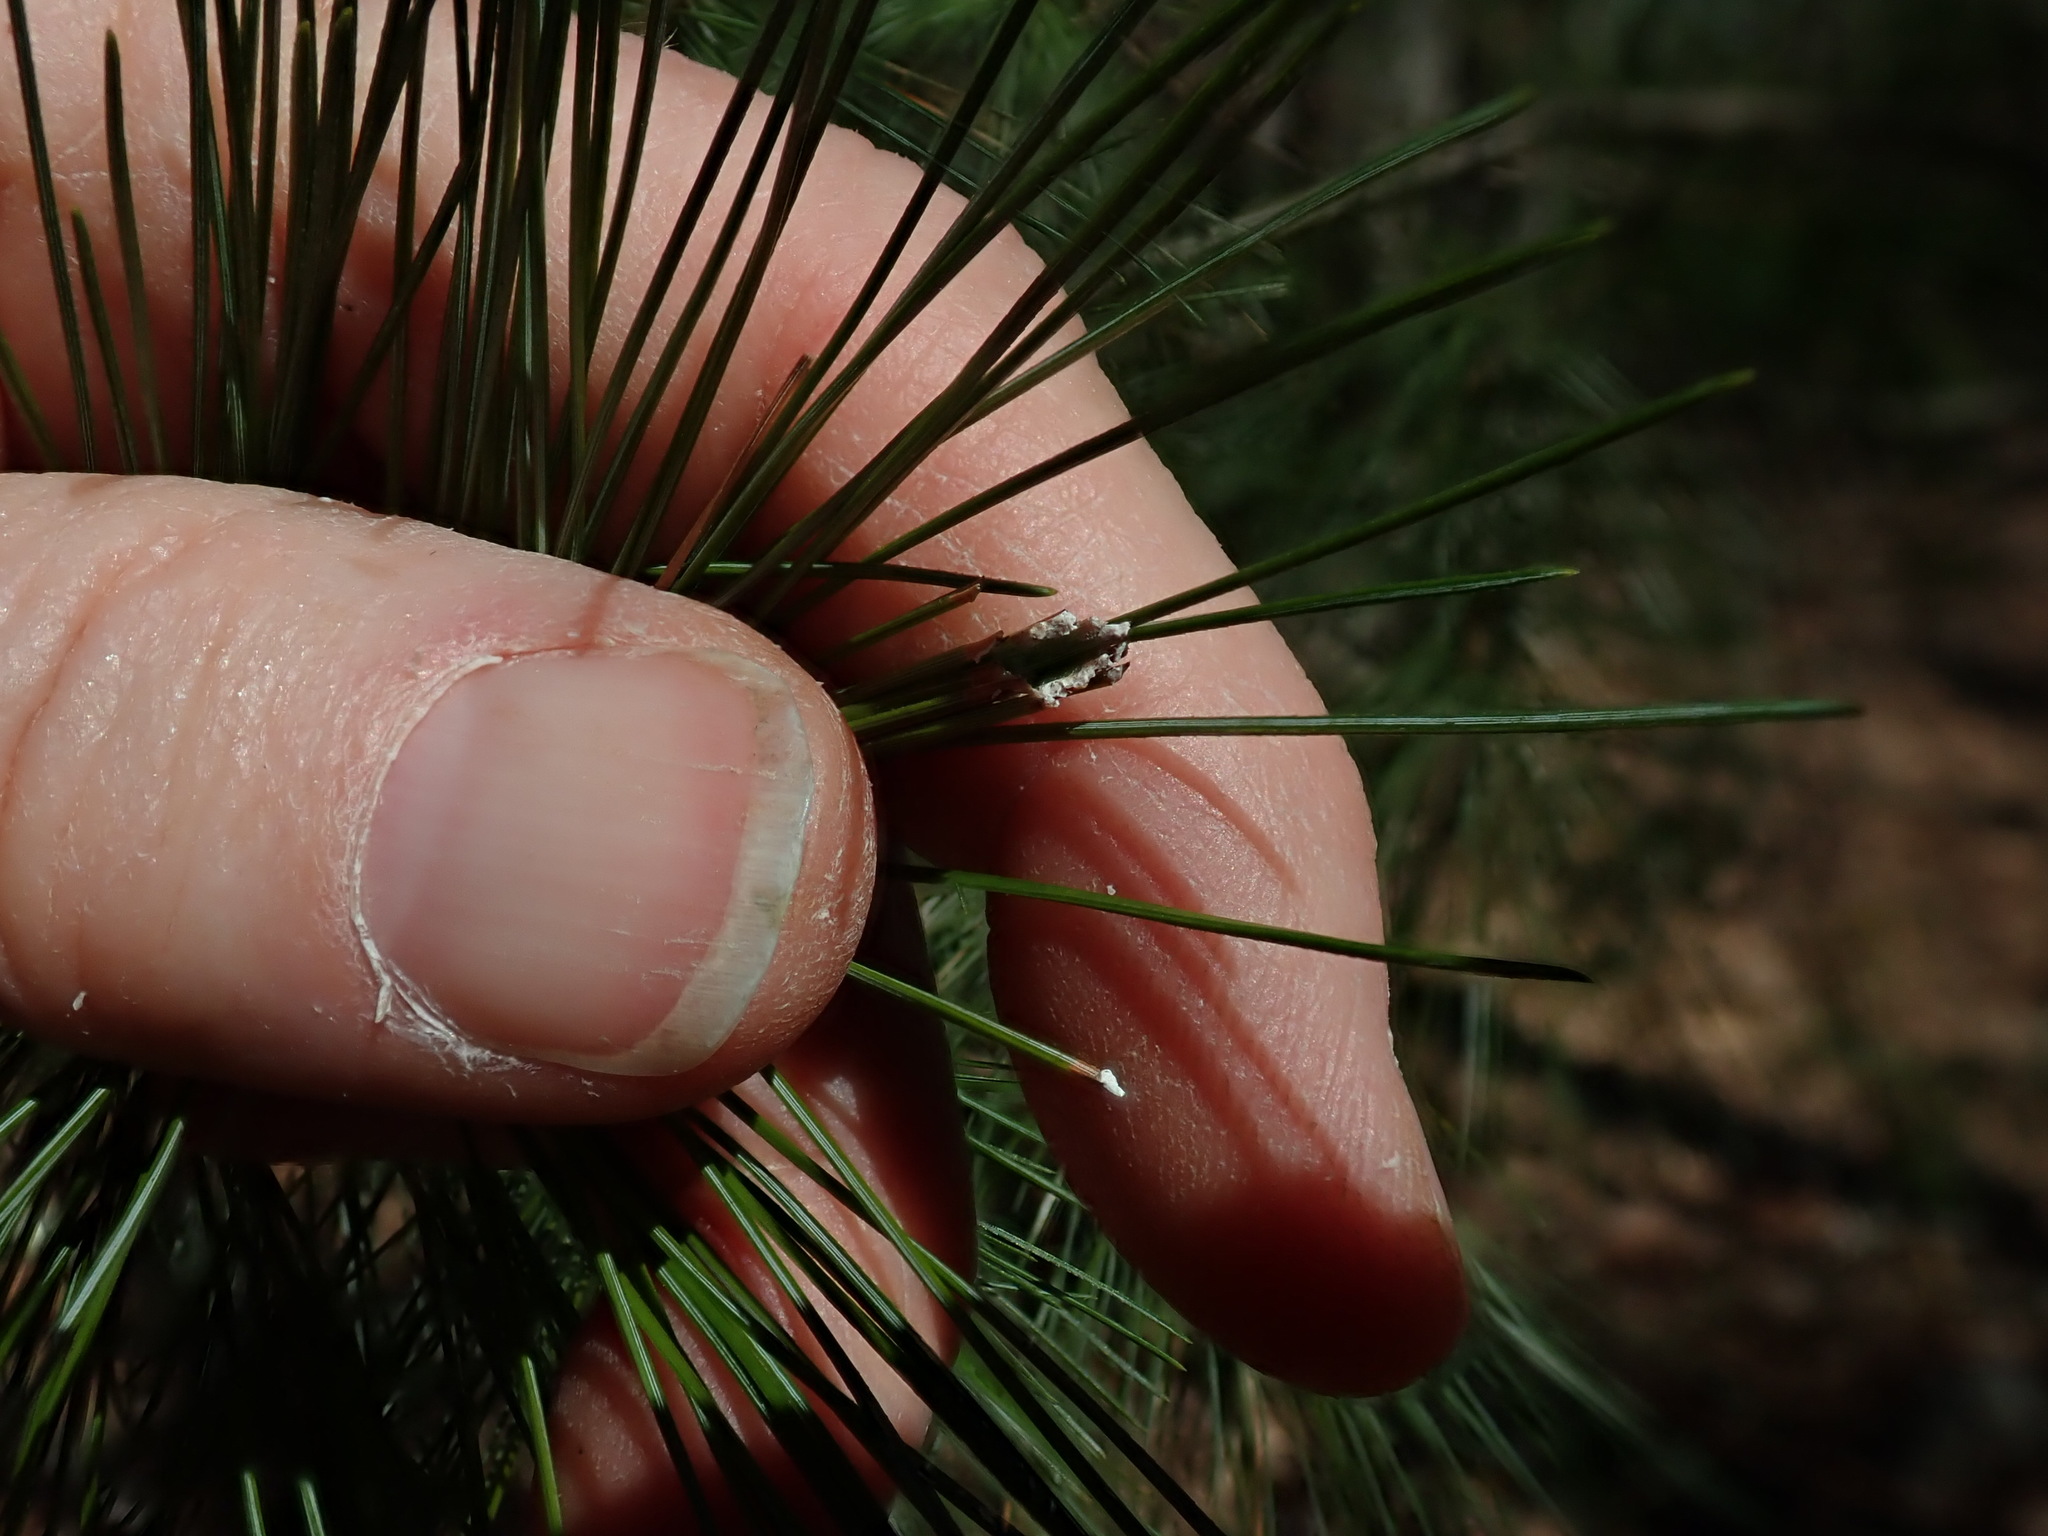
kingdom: Animalia
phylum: Arthropoda
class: Insecta
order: Lepidoptera
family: Tortricidae
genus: Argyrotaenia
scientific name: Argyrotaenia pinatubana
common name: Pine tube moth
